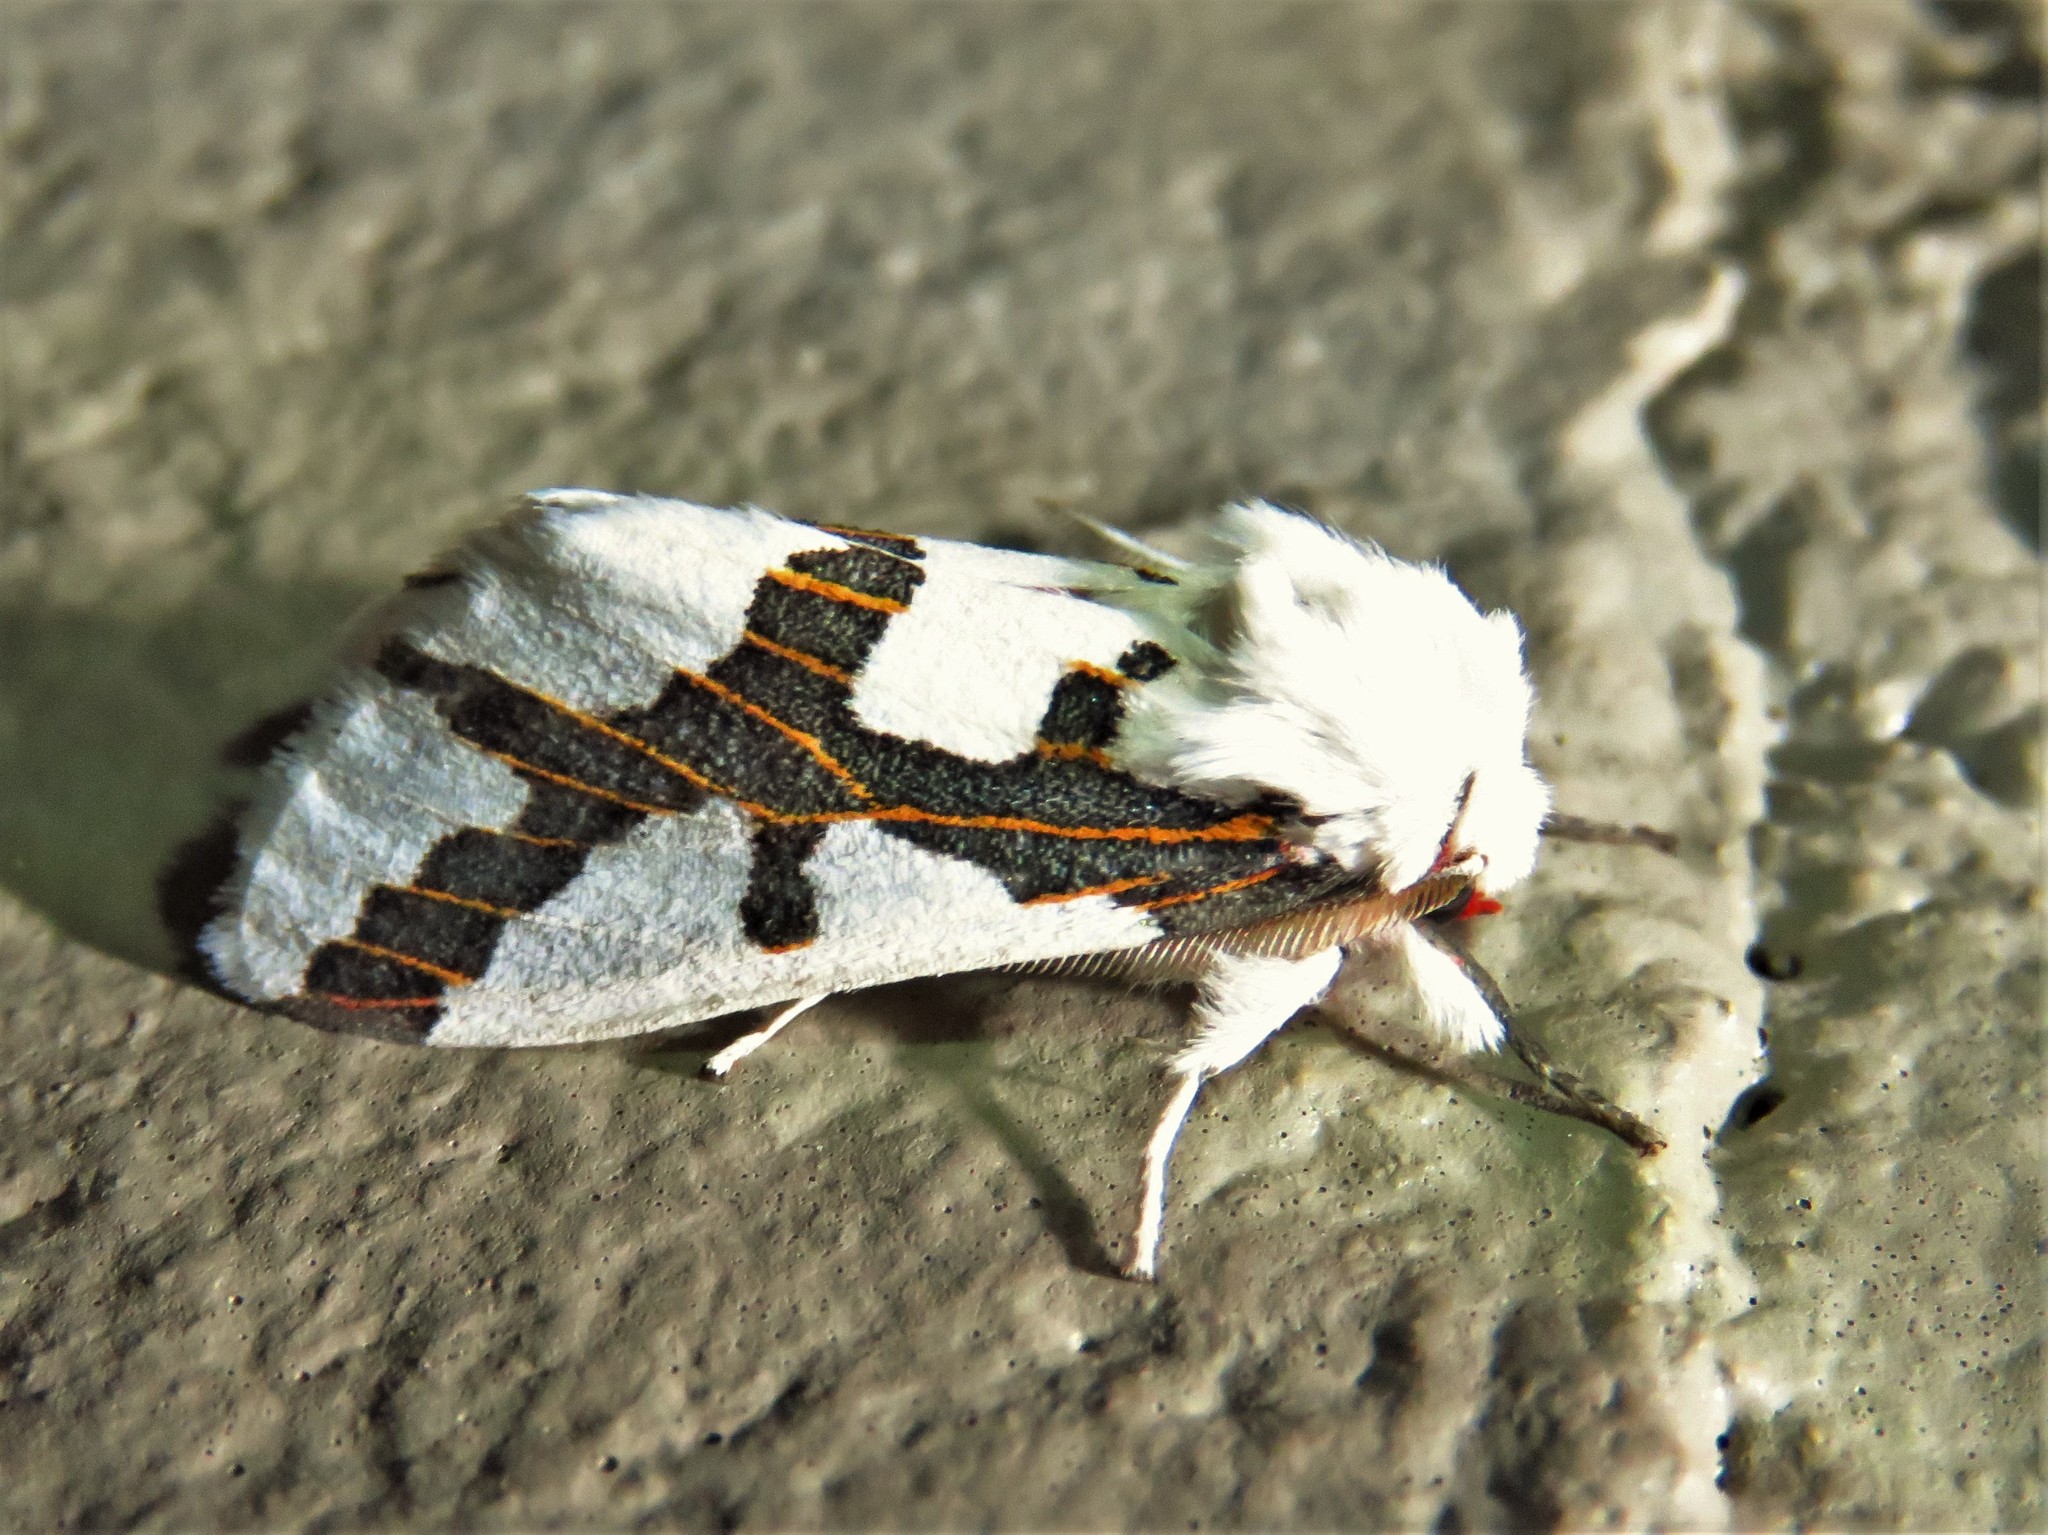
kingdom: Animalia
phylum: Arthropoda
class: Insecta
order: Lepidoptera
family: Erebidae
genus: Euerythra
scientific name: Euerythra phasma
